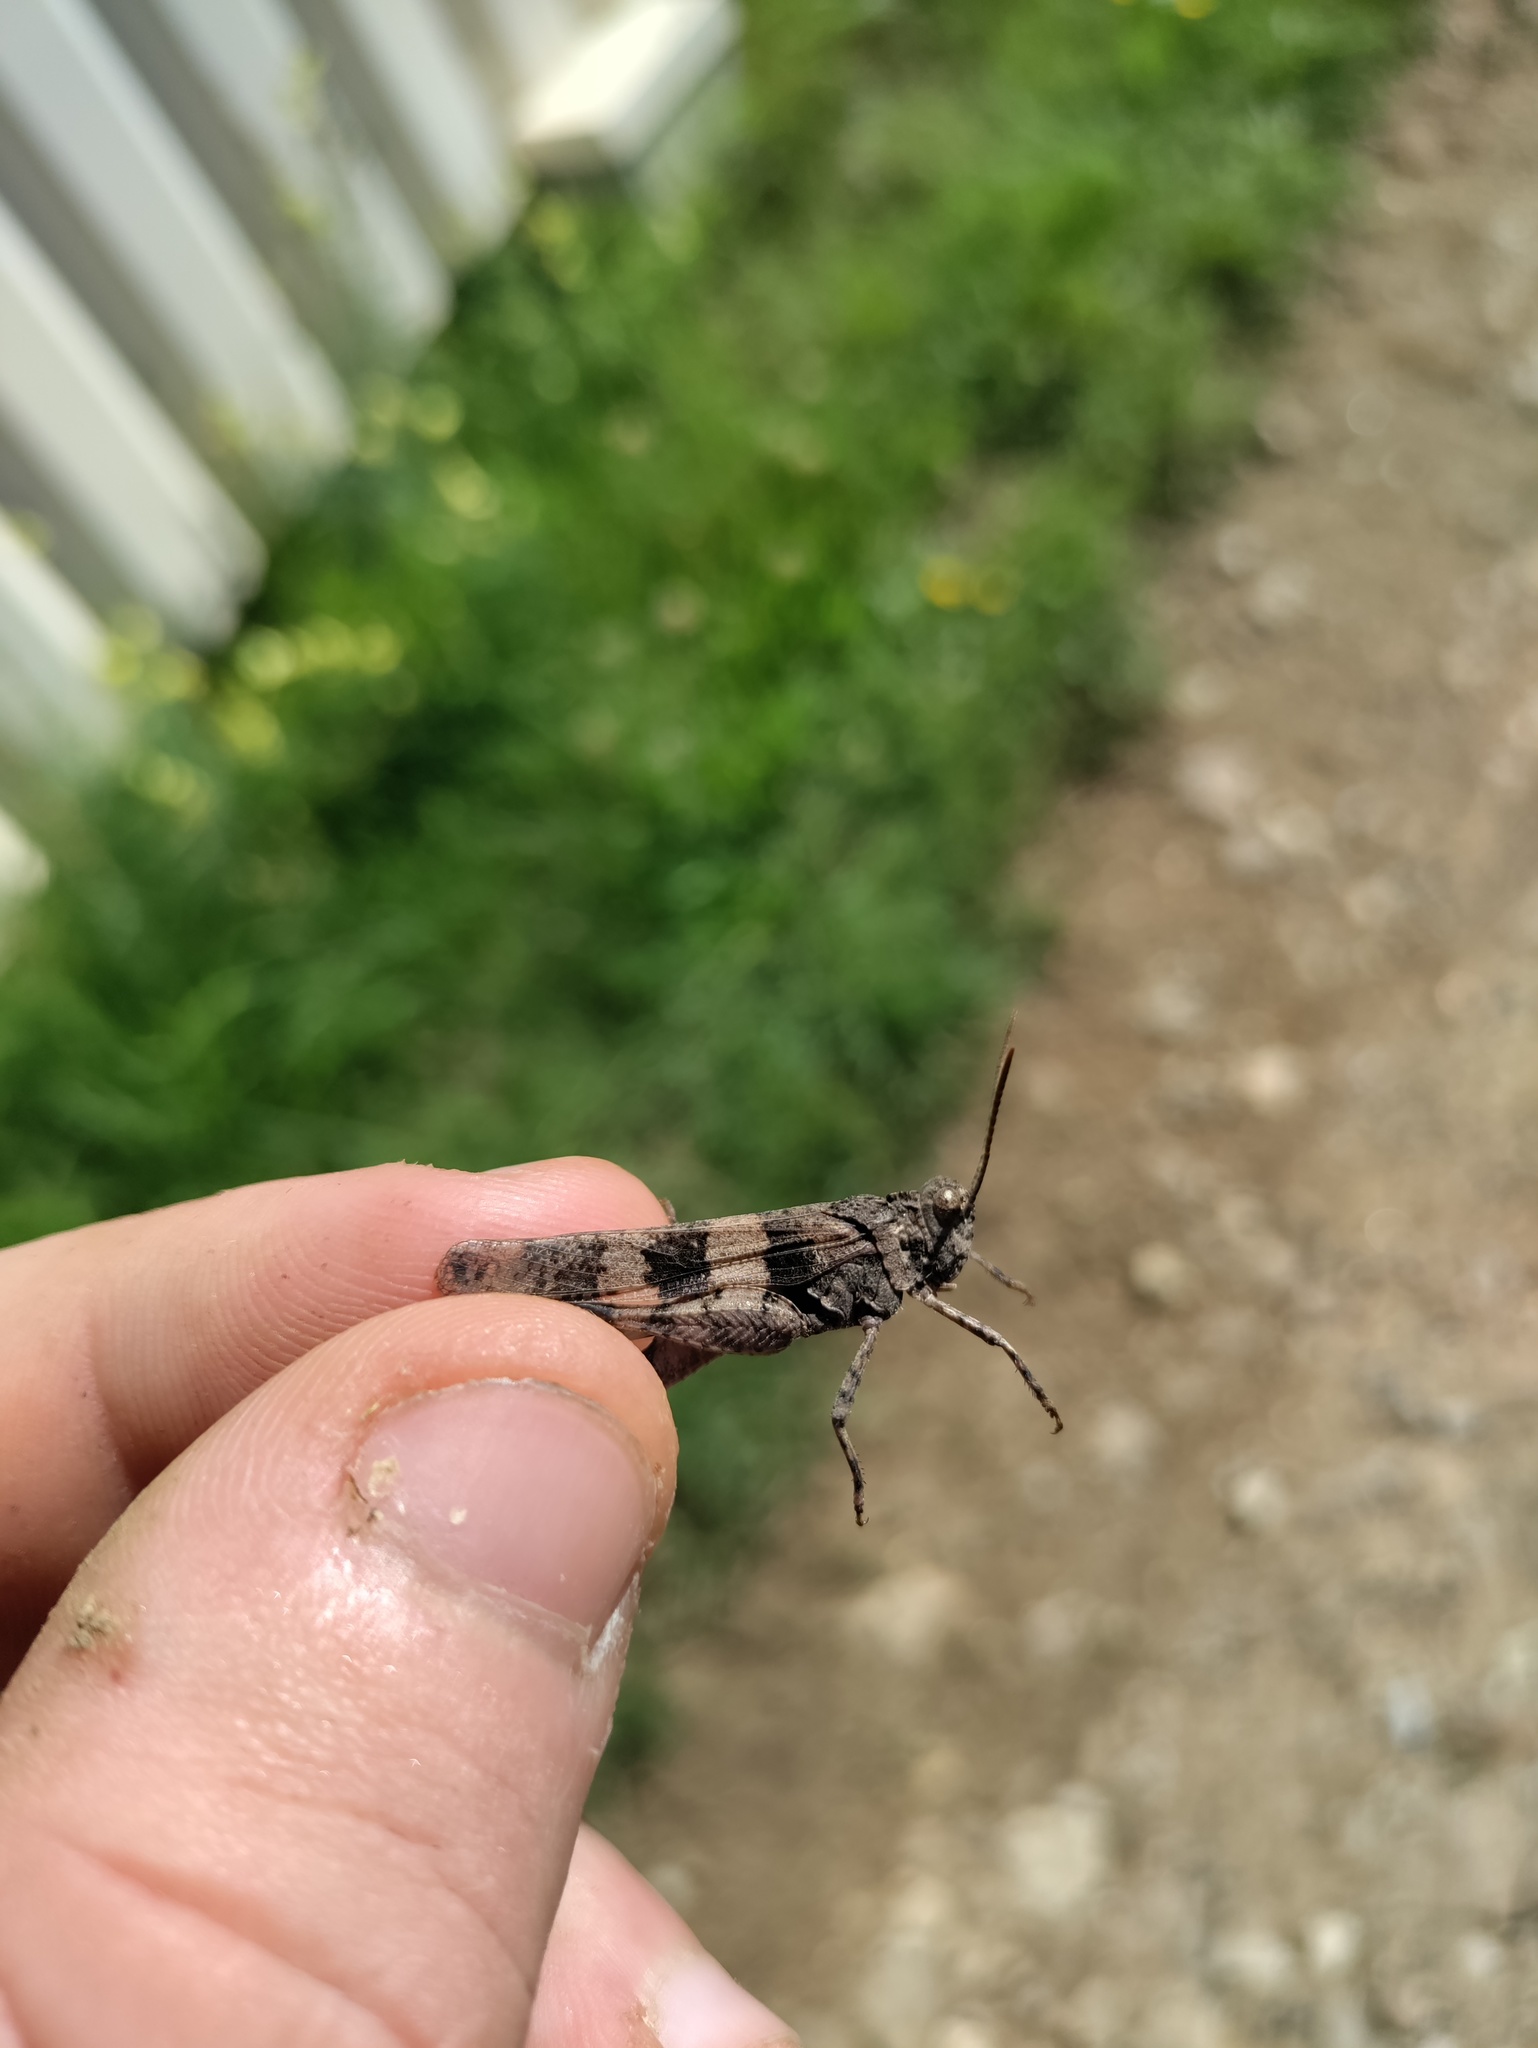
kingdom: Animalia
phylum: Arthropoda
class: Insecta
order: Orthoptera
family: Acrididae
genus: Oedipoda
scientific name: Oedipoda caerulescens
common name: Blue-winged grasshopper
